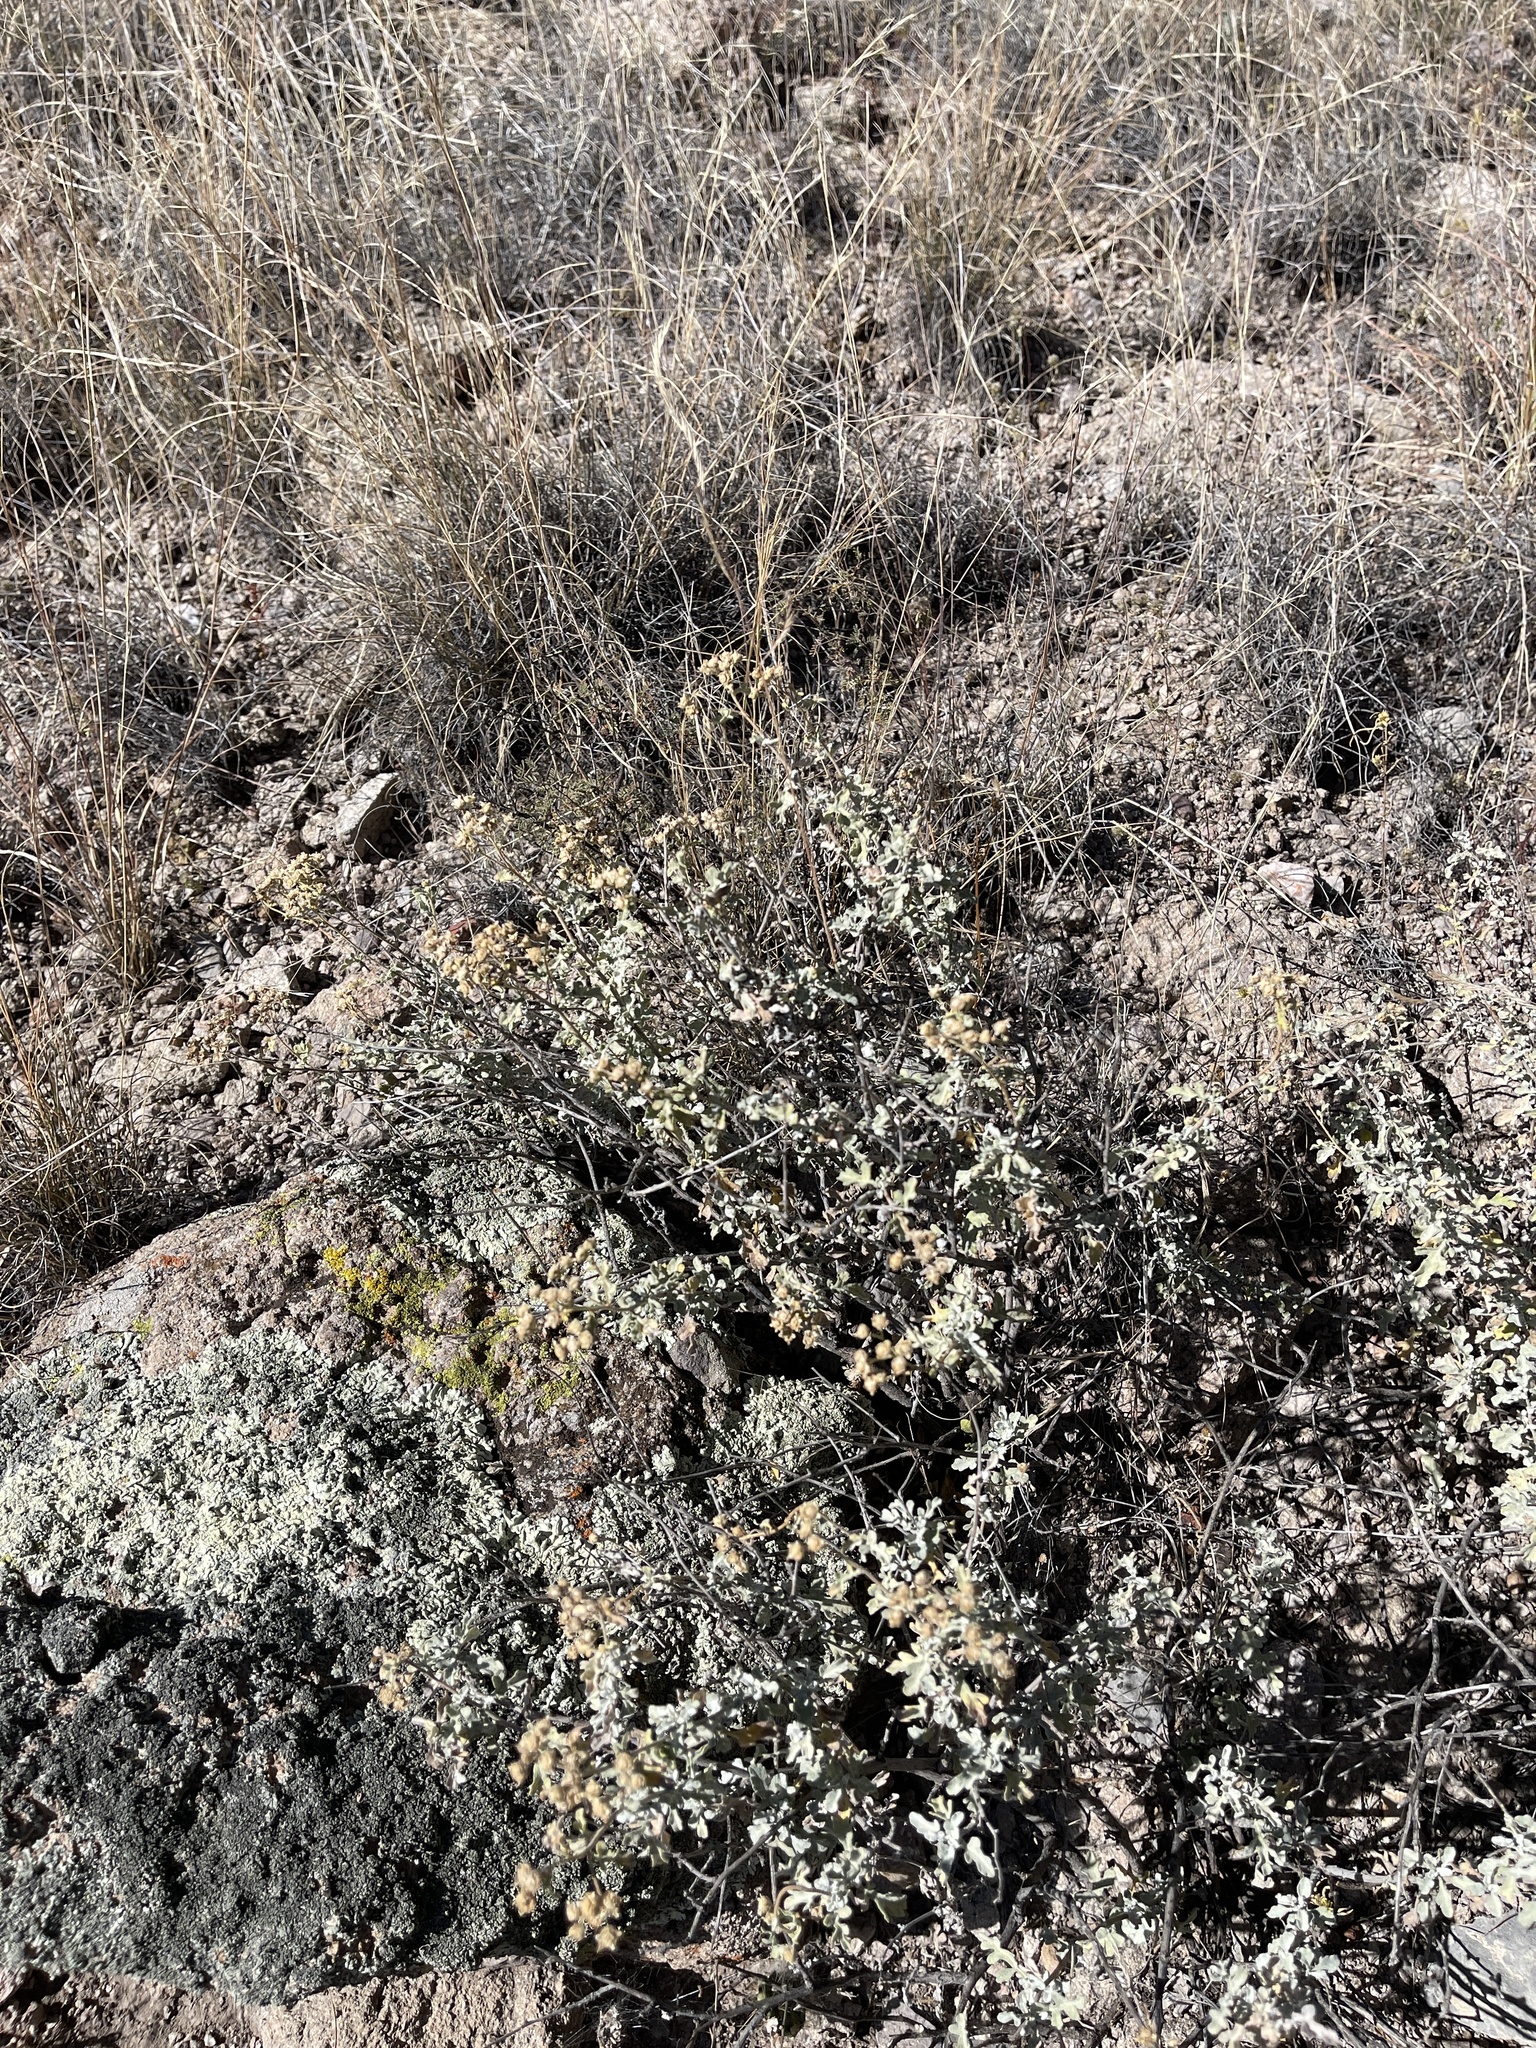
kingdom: Plantae
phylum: Tracheophyta
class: Magnoliopsida
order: Asterales
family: Asteraceae
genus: Parthenium
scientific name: Parthenium incanum
